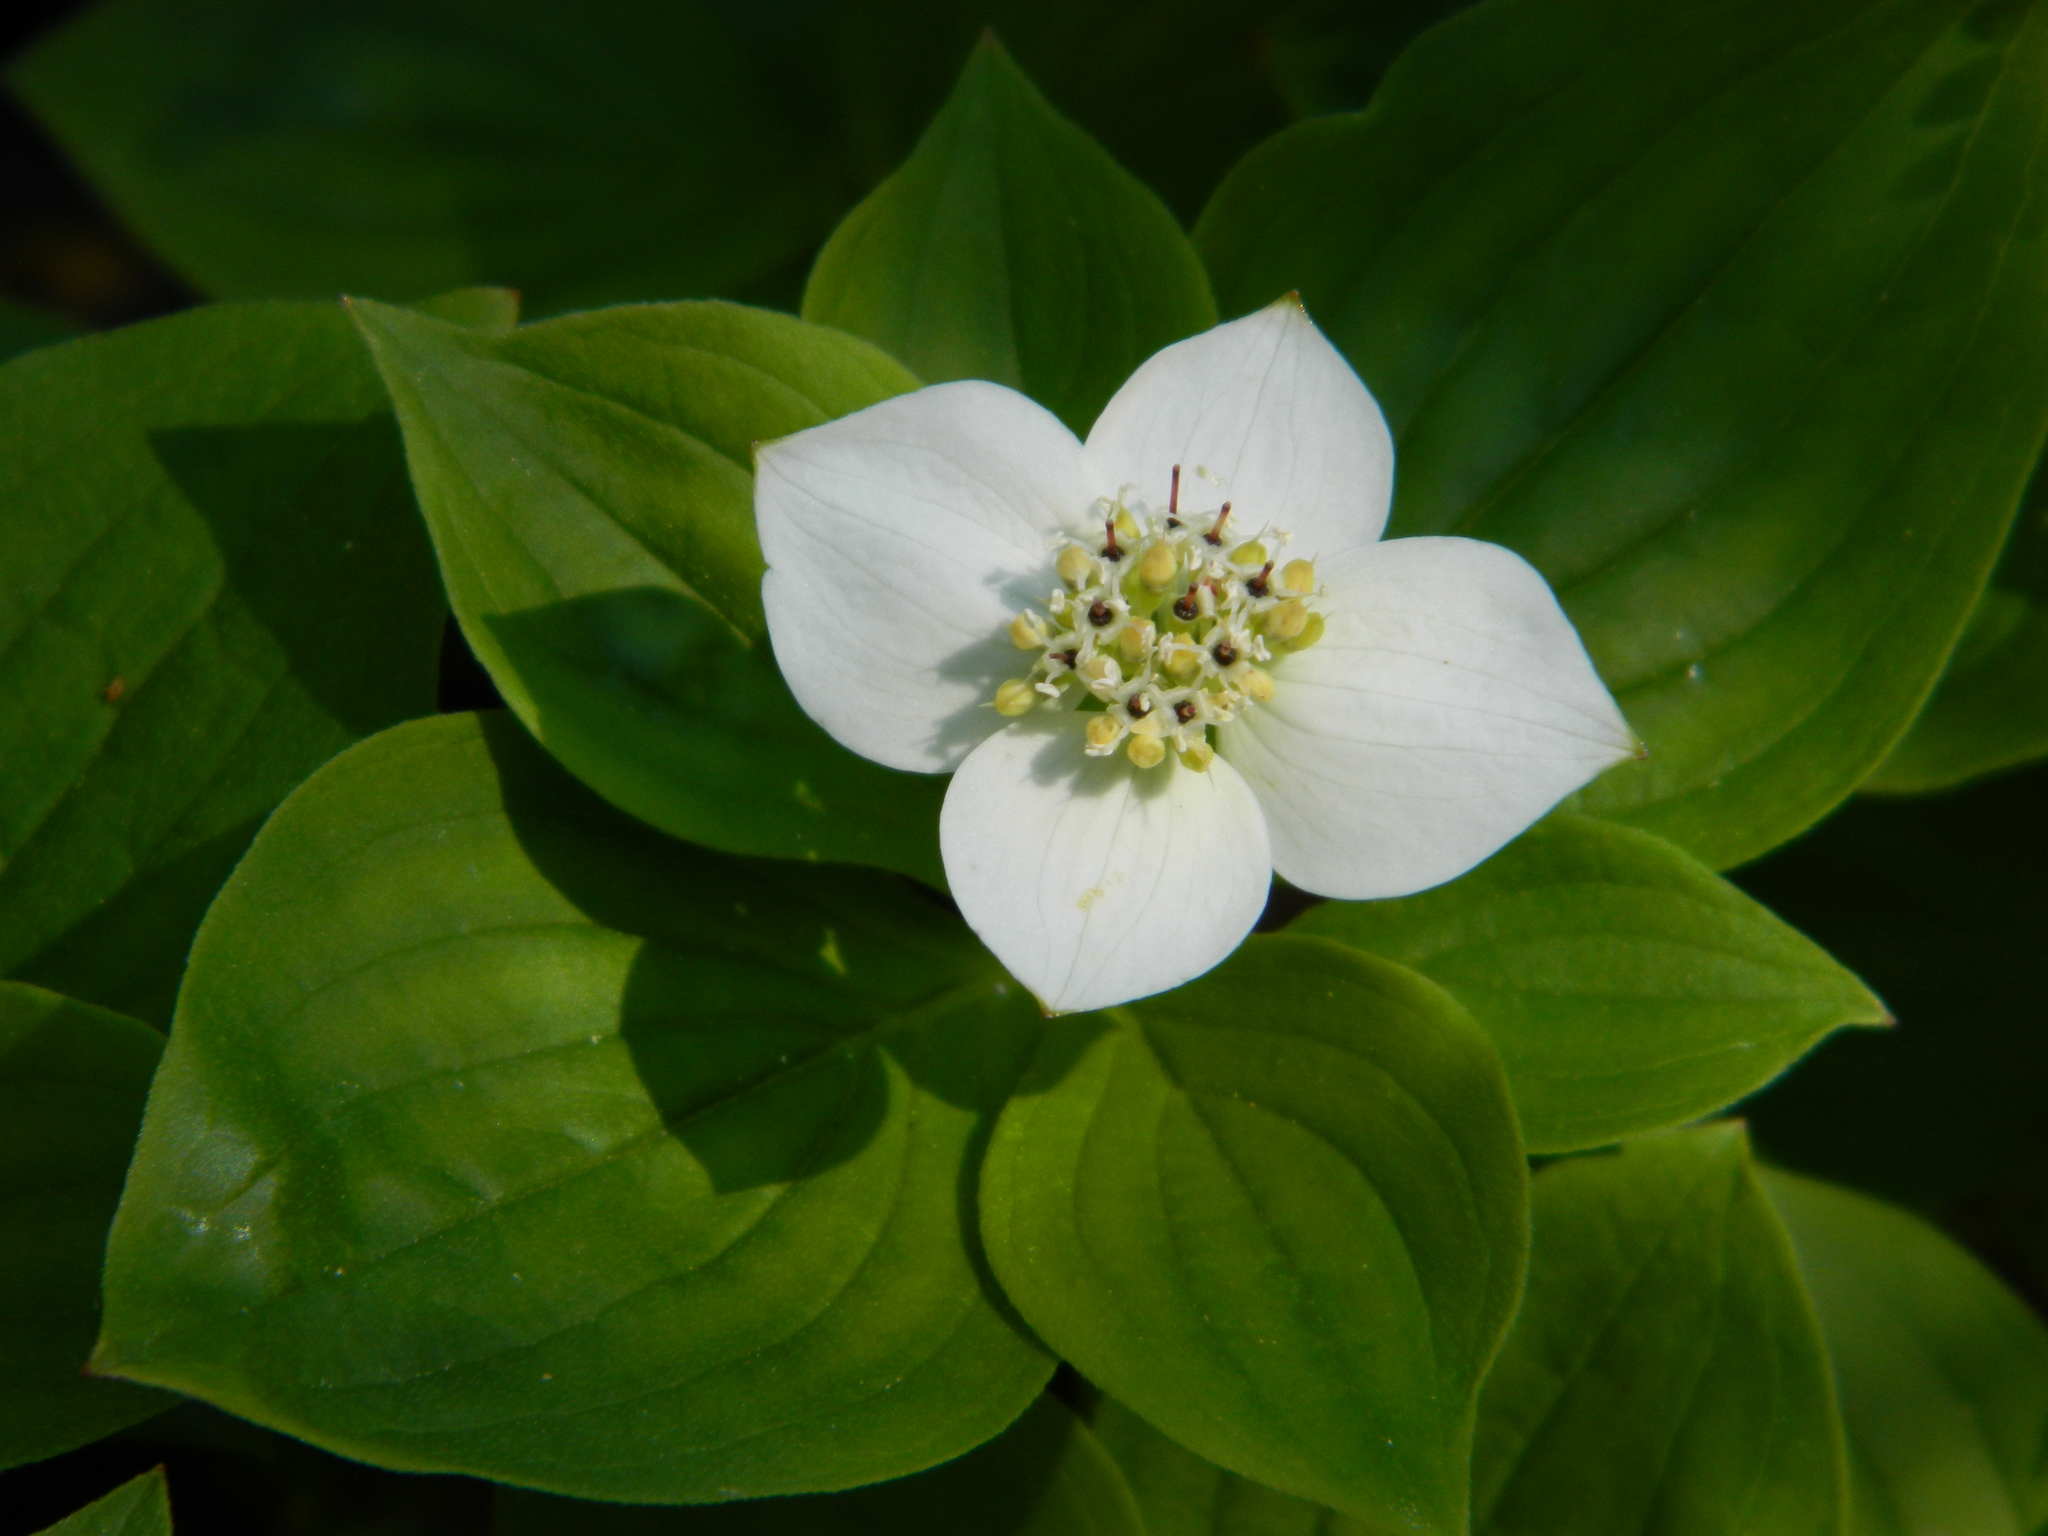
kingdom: Plantae
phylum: Tracheophyta
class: Magnoliopsida
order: Cornales
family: Cornaceae
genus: Cornus
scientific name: Cornus canadensis
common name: Creeping dogwood
